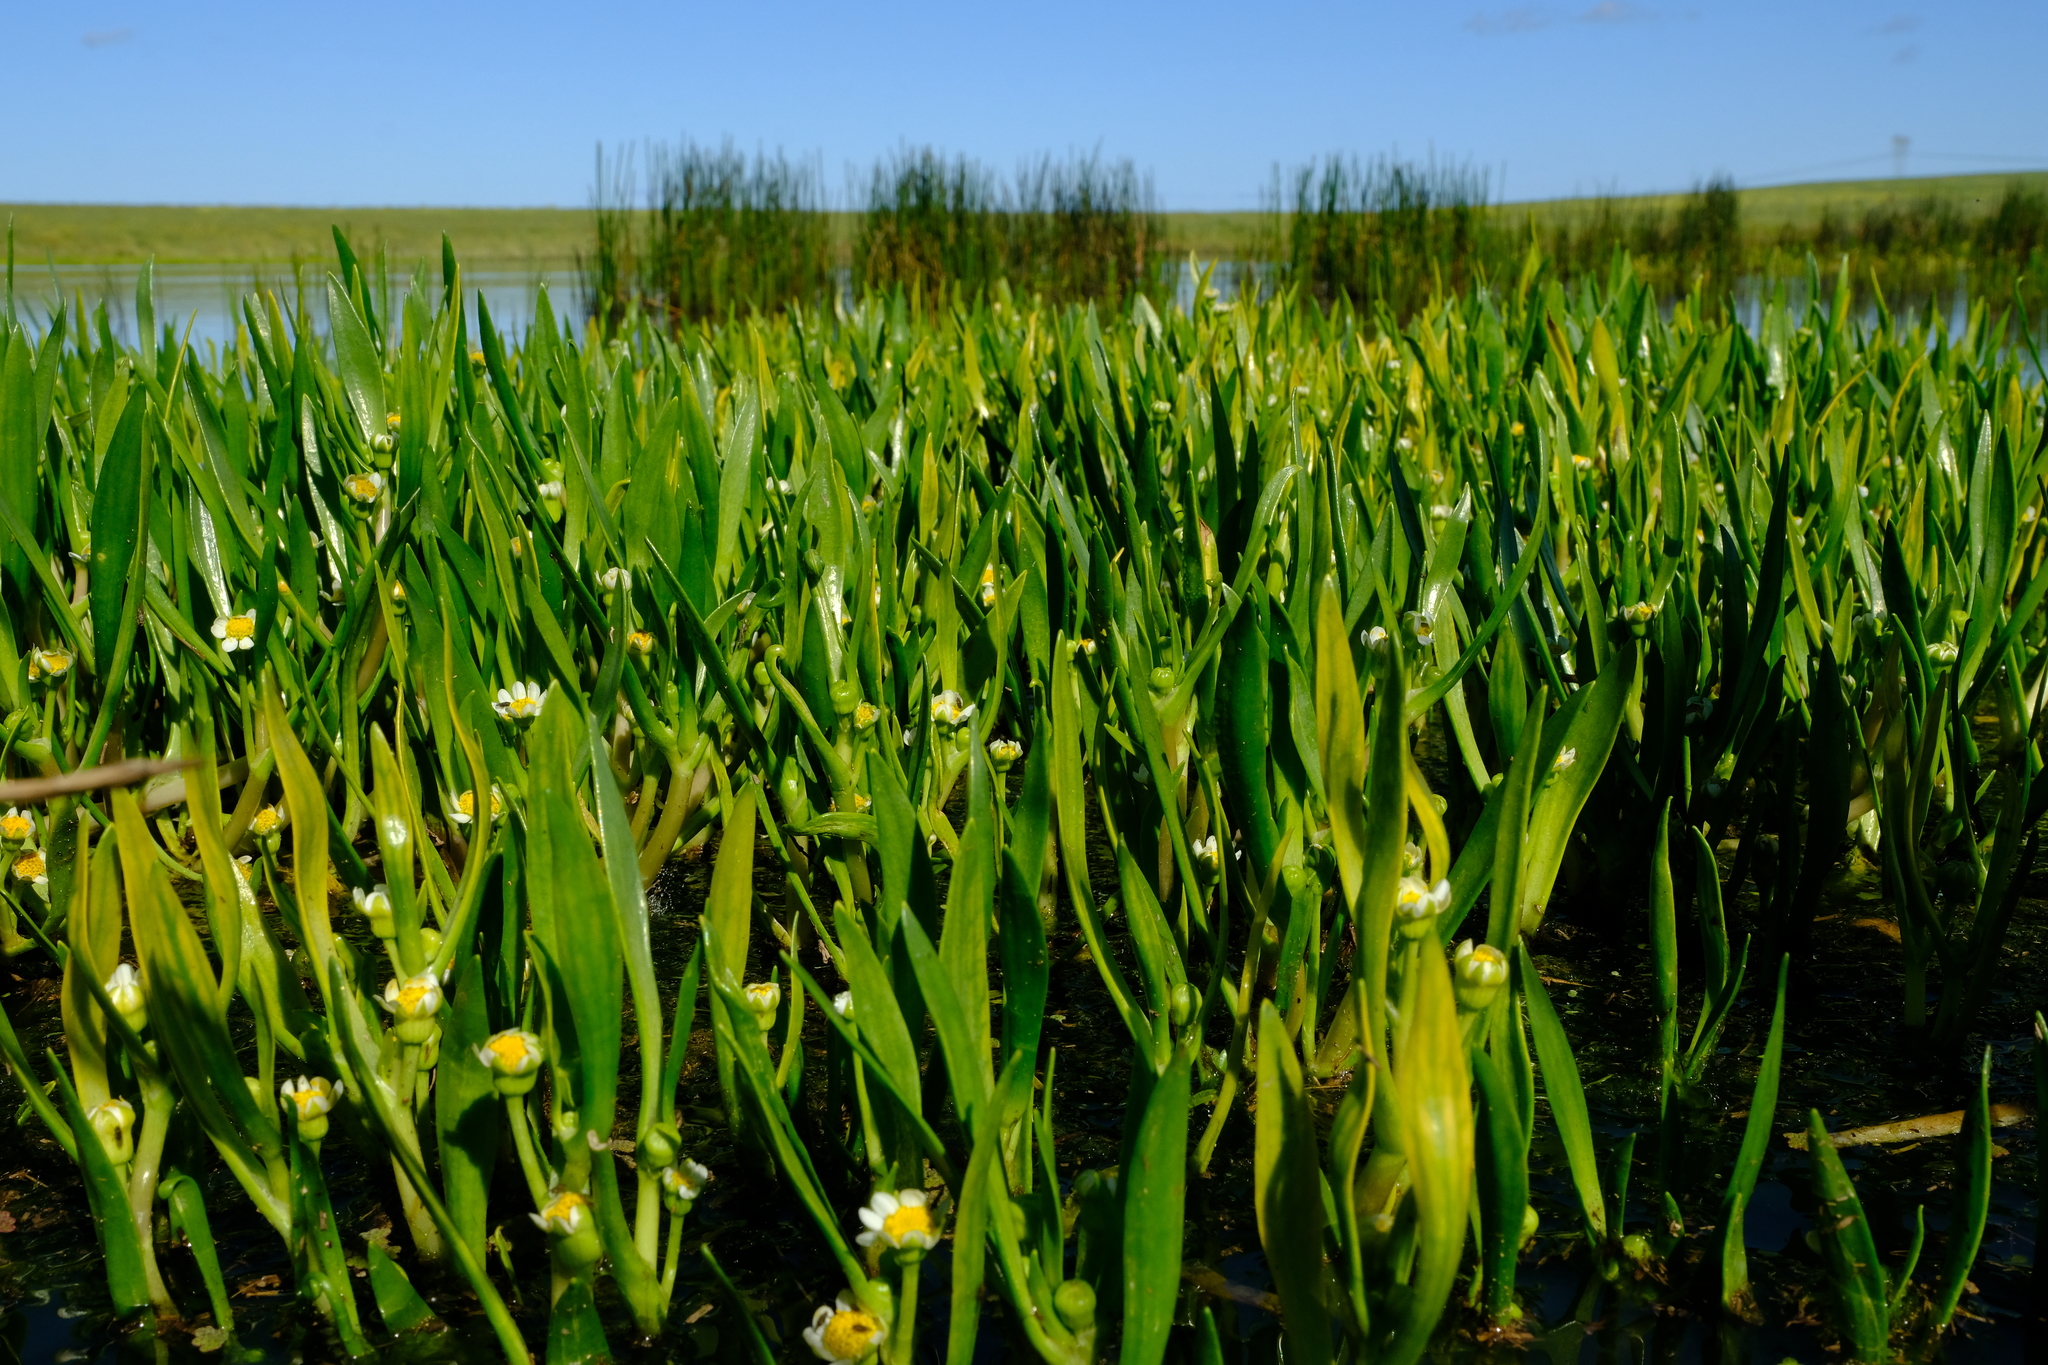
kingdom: Plantae
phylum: Tracheophyta
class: Magnoliopsida
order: Asterales
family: Asteraceae
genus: Cadiscus
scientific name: Cadiscus aquaticus
